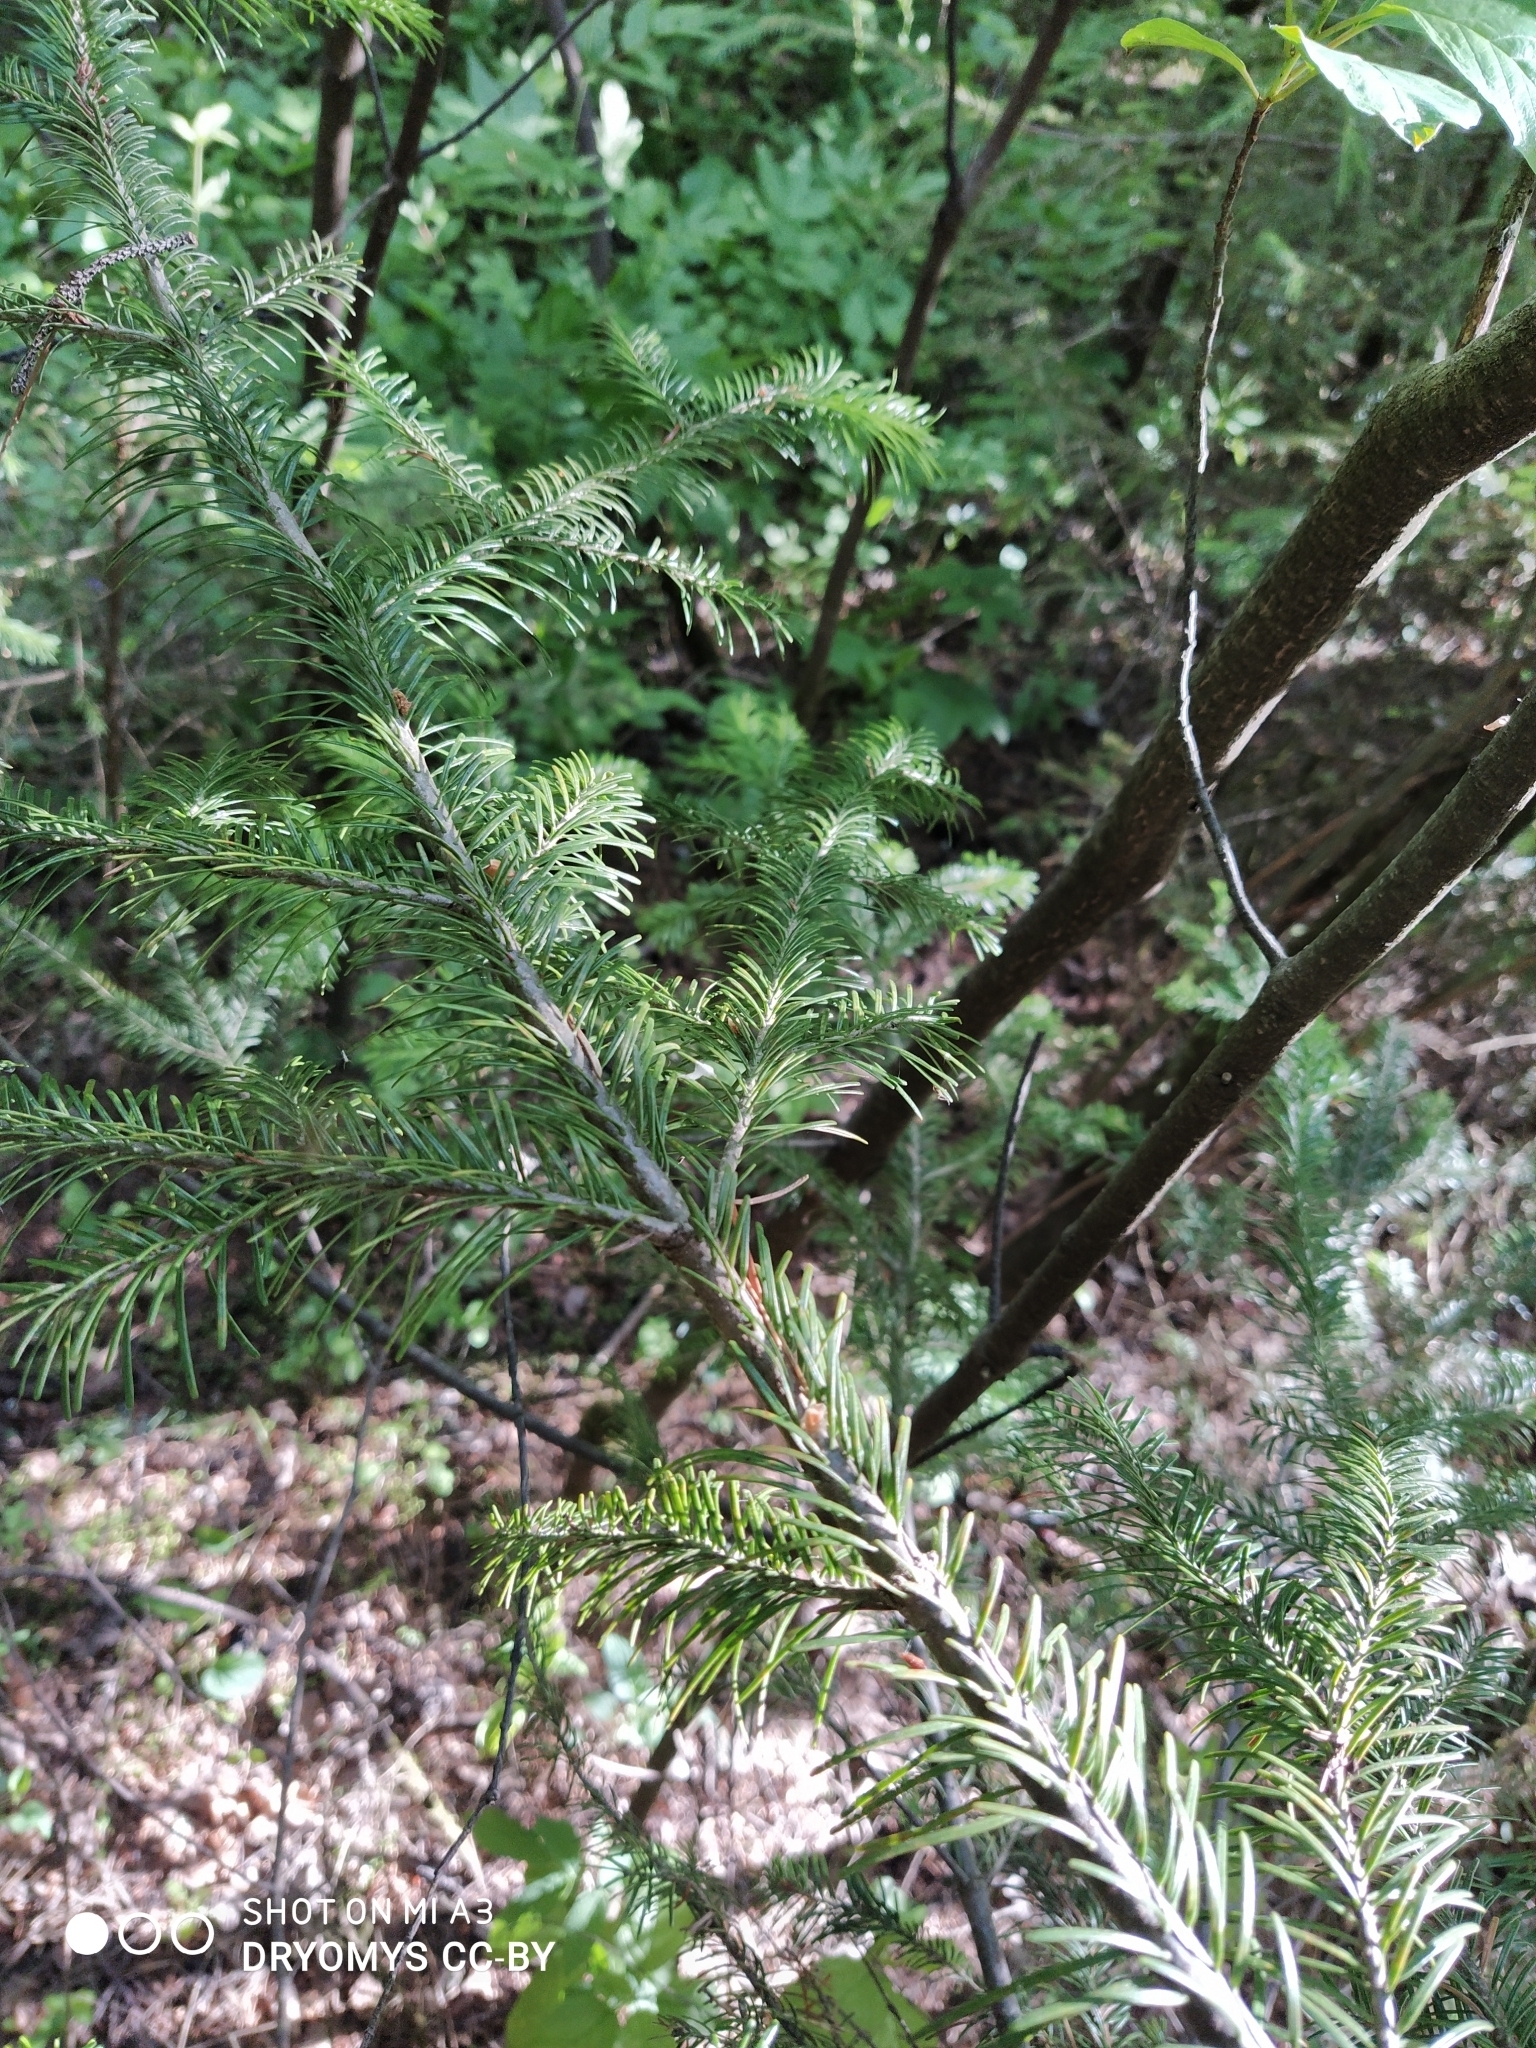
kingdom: Plantae
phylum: Tracheophyta
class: Pinopsida
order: Pinales
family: Pinaceae
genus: Abies
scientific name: Abies sibirica
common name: Siberian fir
